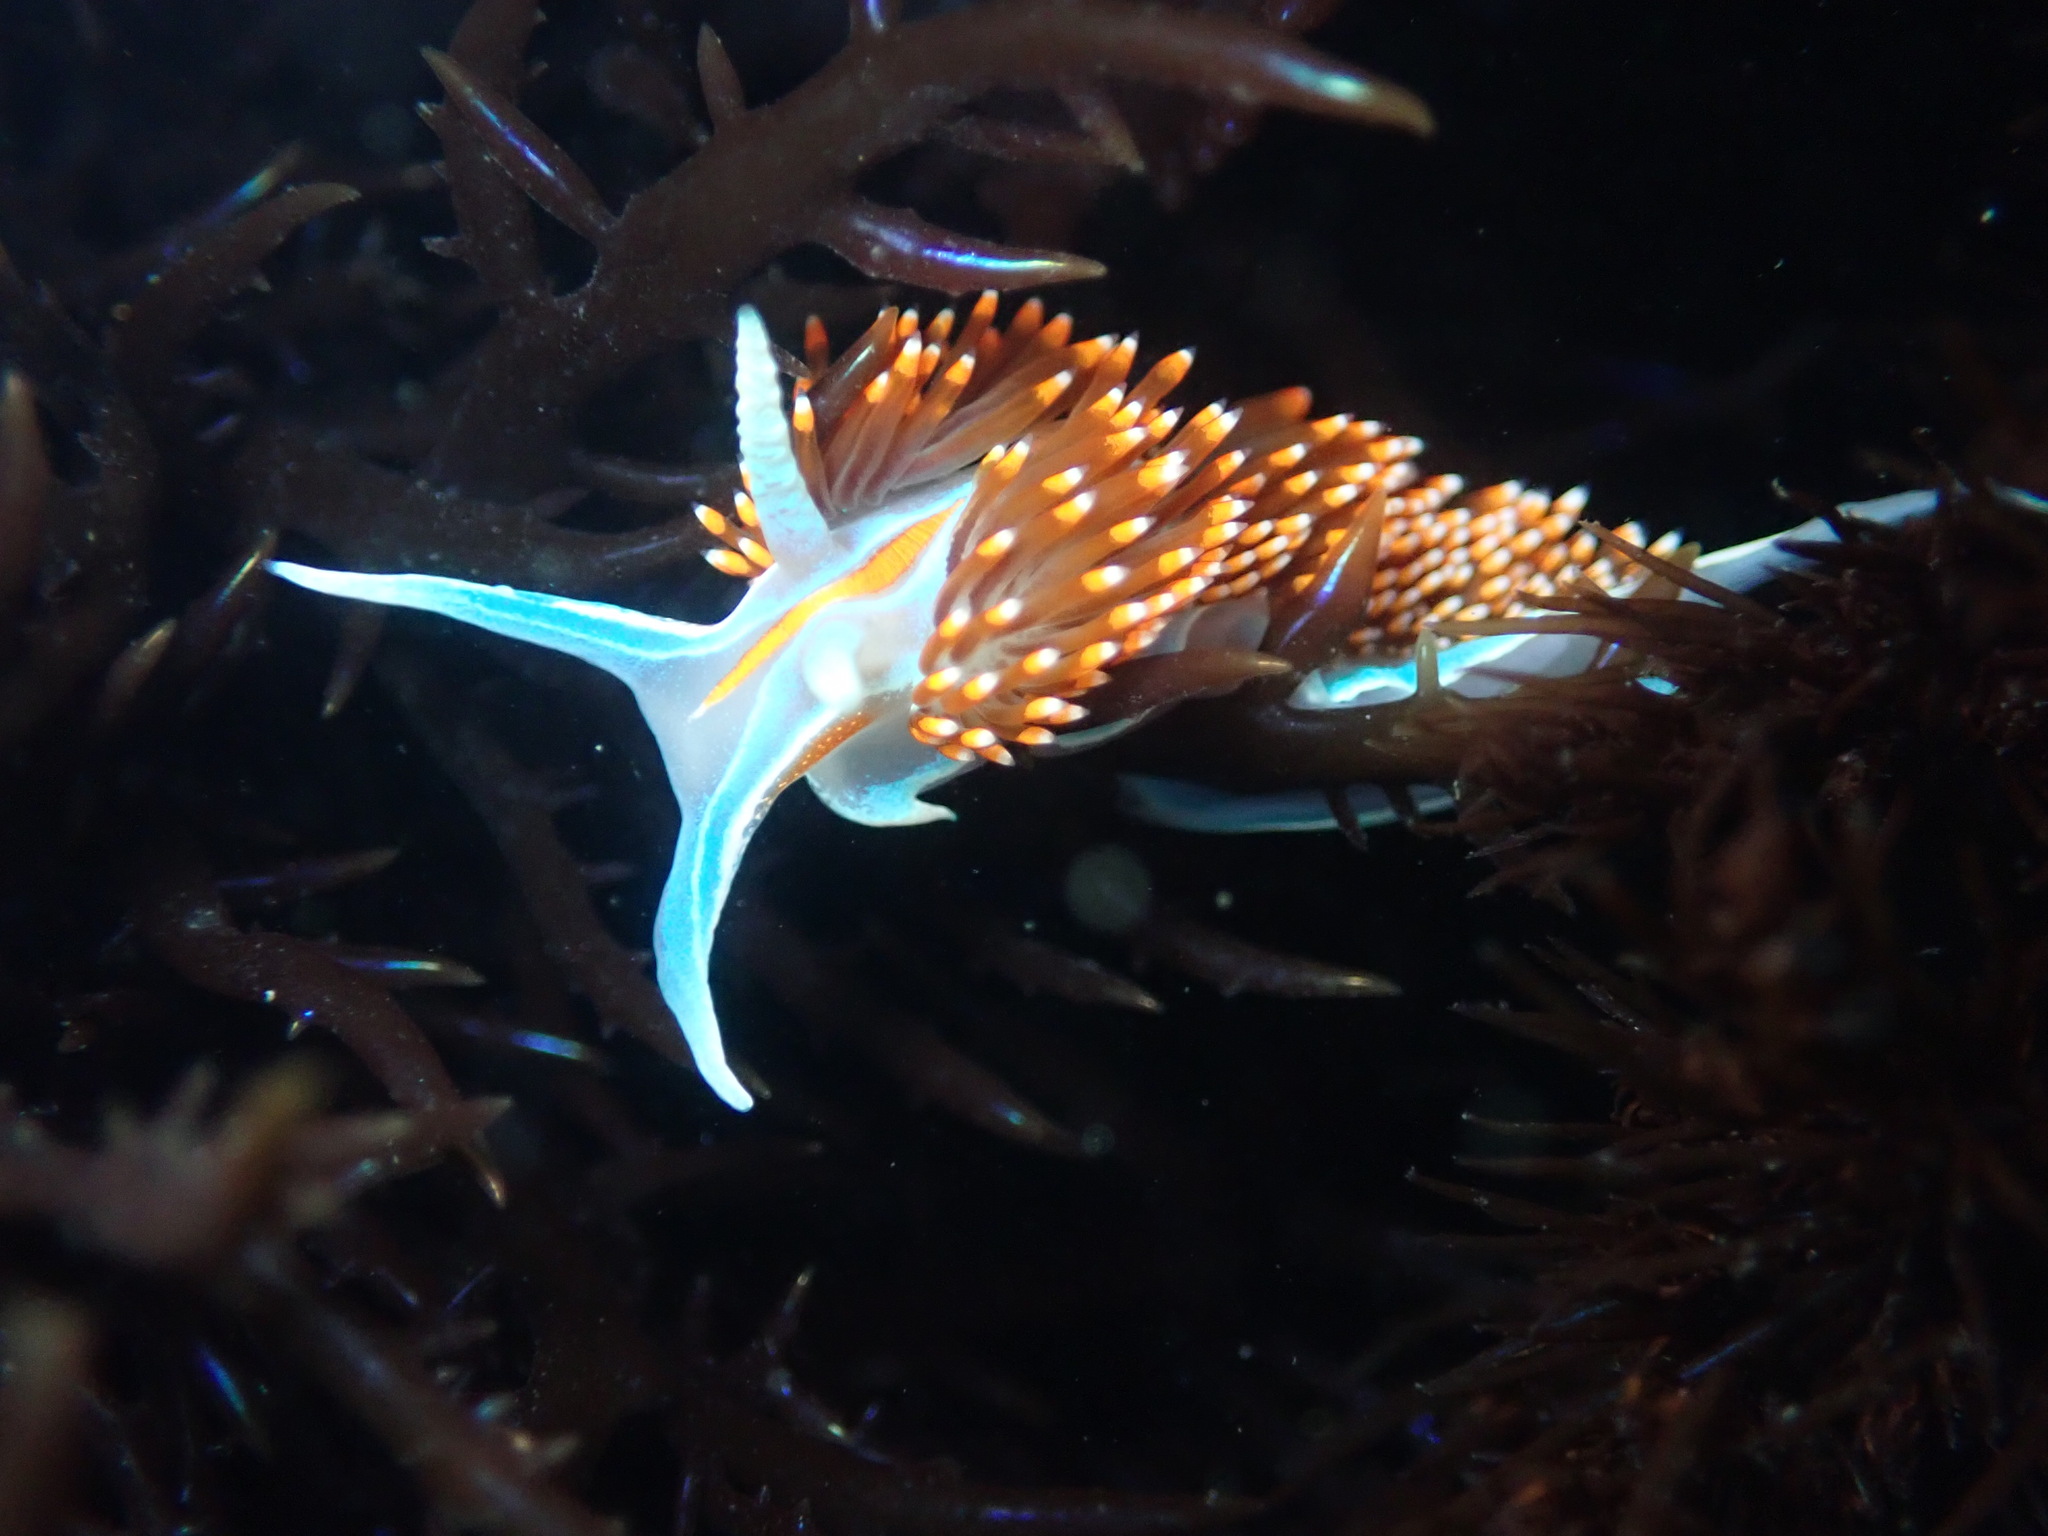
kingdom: Animalia
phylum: Mollusca
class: Gastropoda
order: Nudibranchia
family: Myrrhinidae
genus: Hermissenda
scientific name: Hermissenda opalescens
